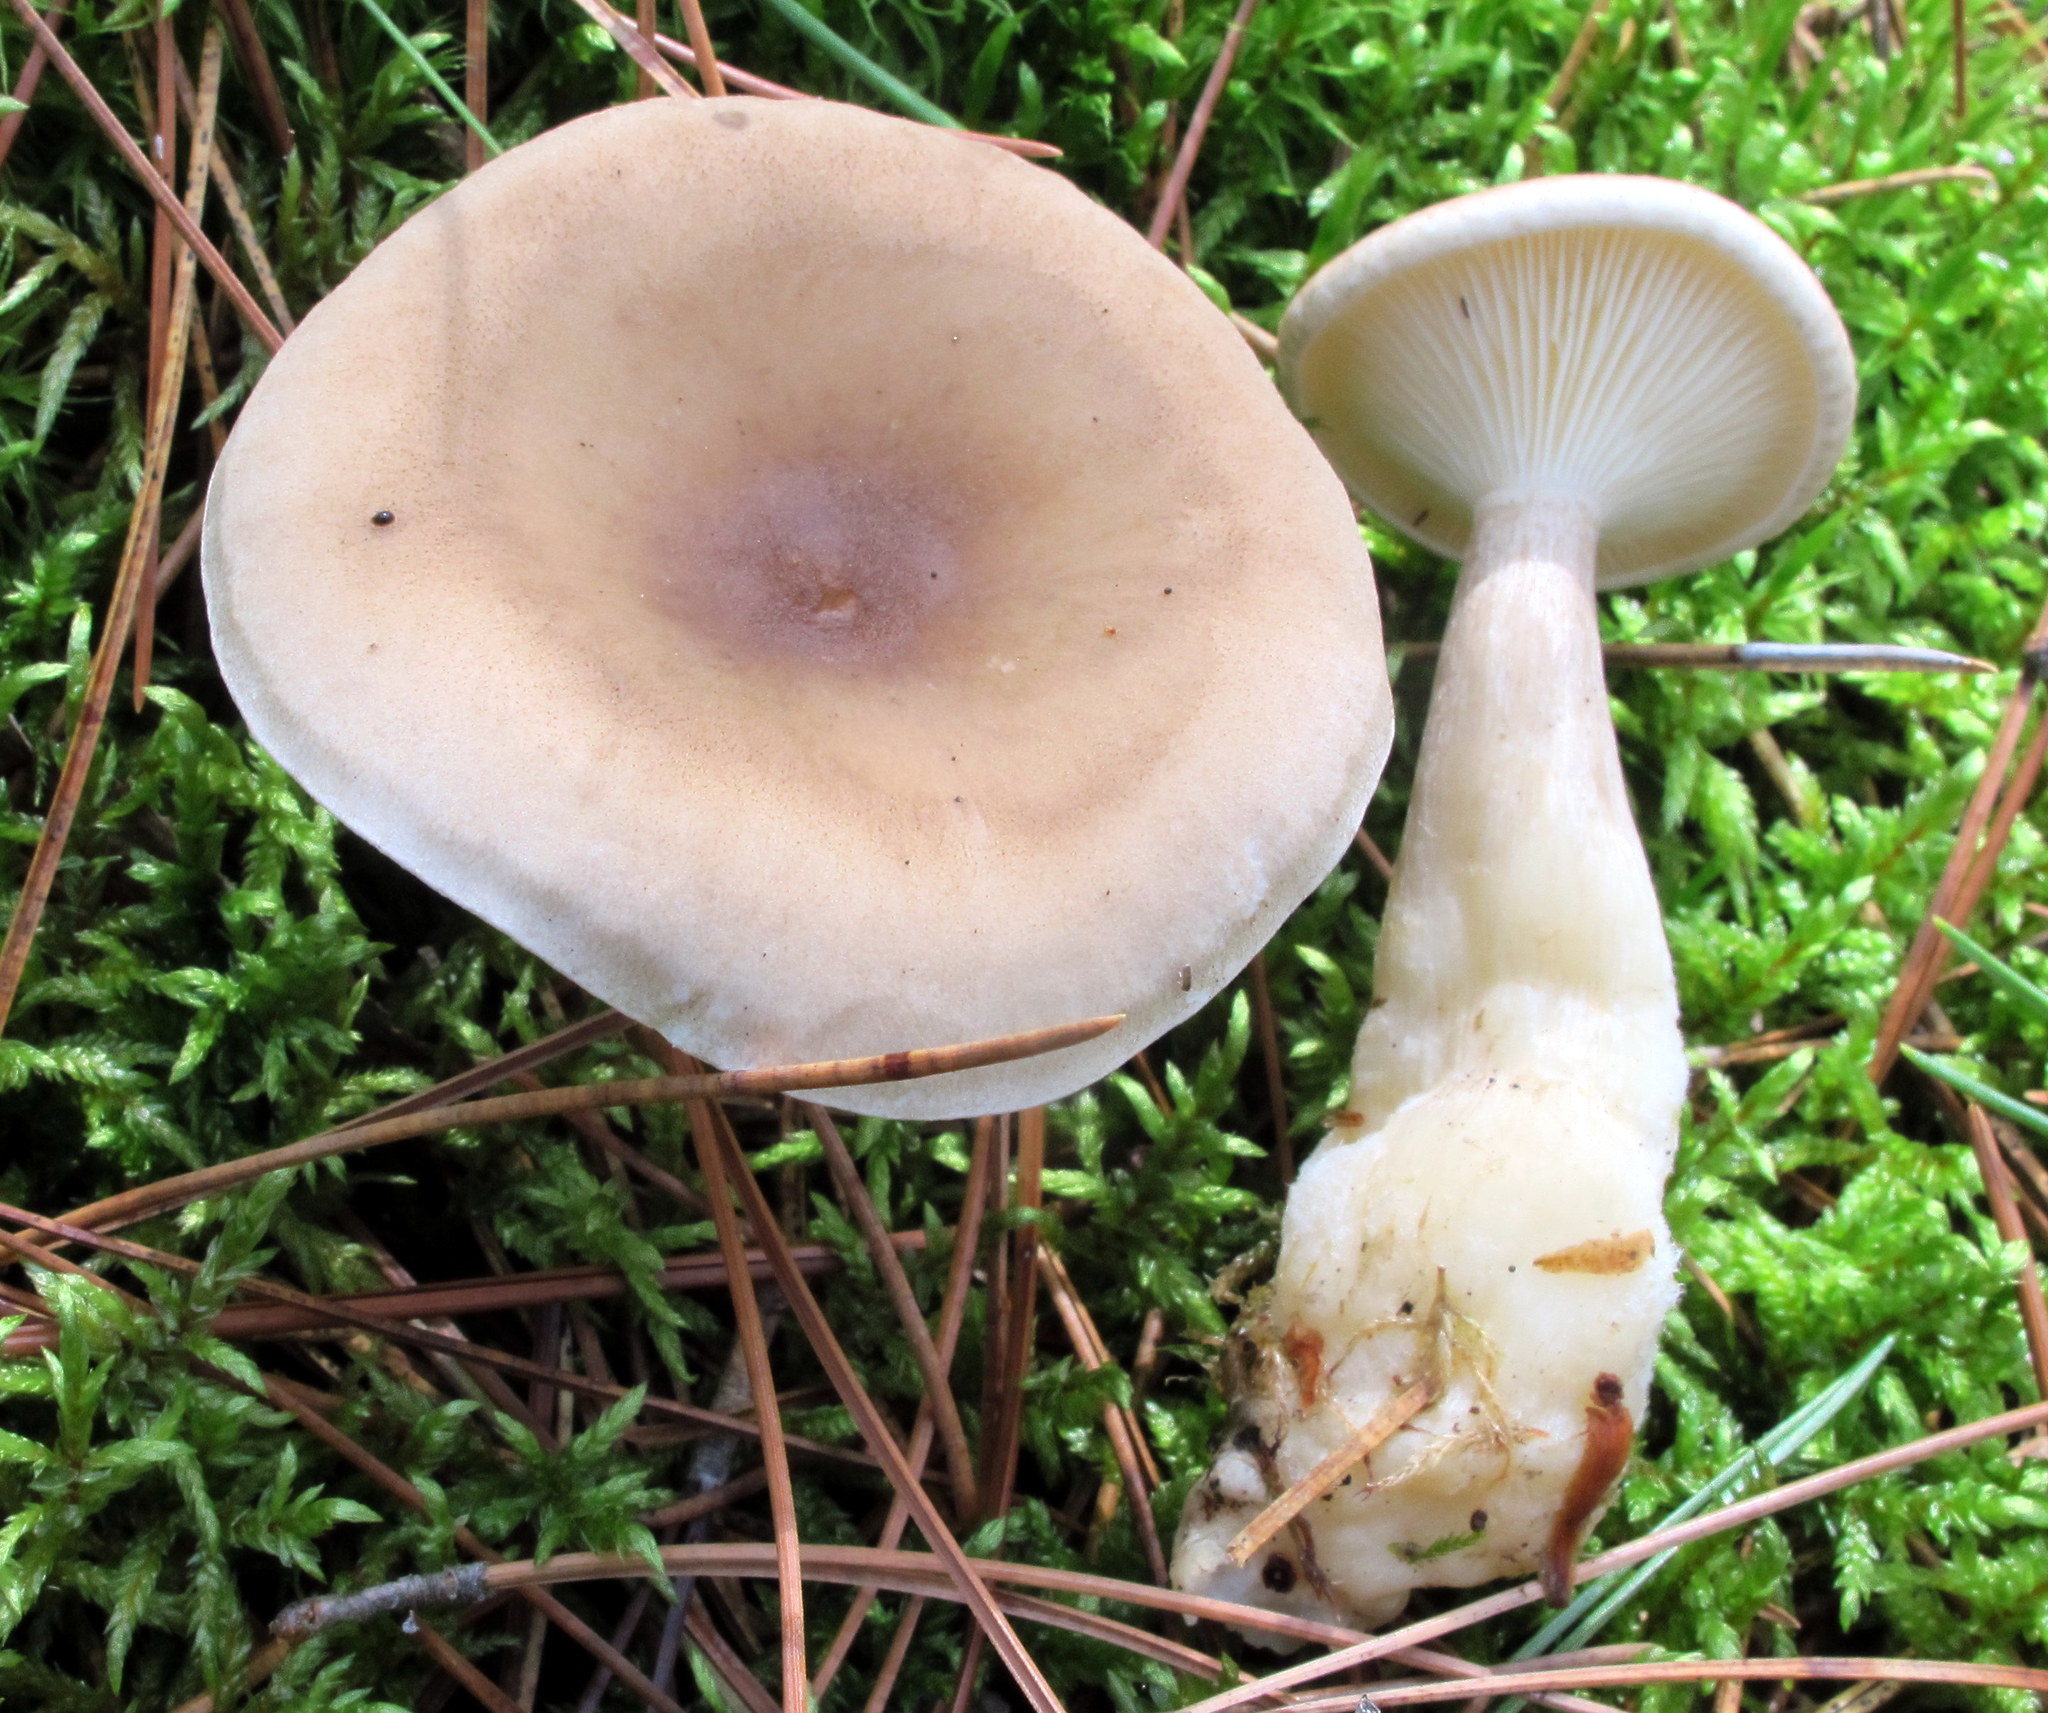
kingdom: Fungi
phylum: Basidiomycota
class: Agaricomycetes
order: Agaricales
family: Hygrophoraceae
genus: Ampulloclitocybe
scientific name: Ampulloclitocybe clavipes
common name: Club foot
